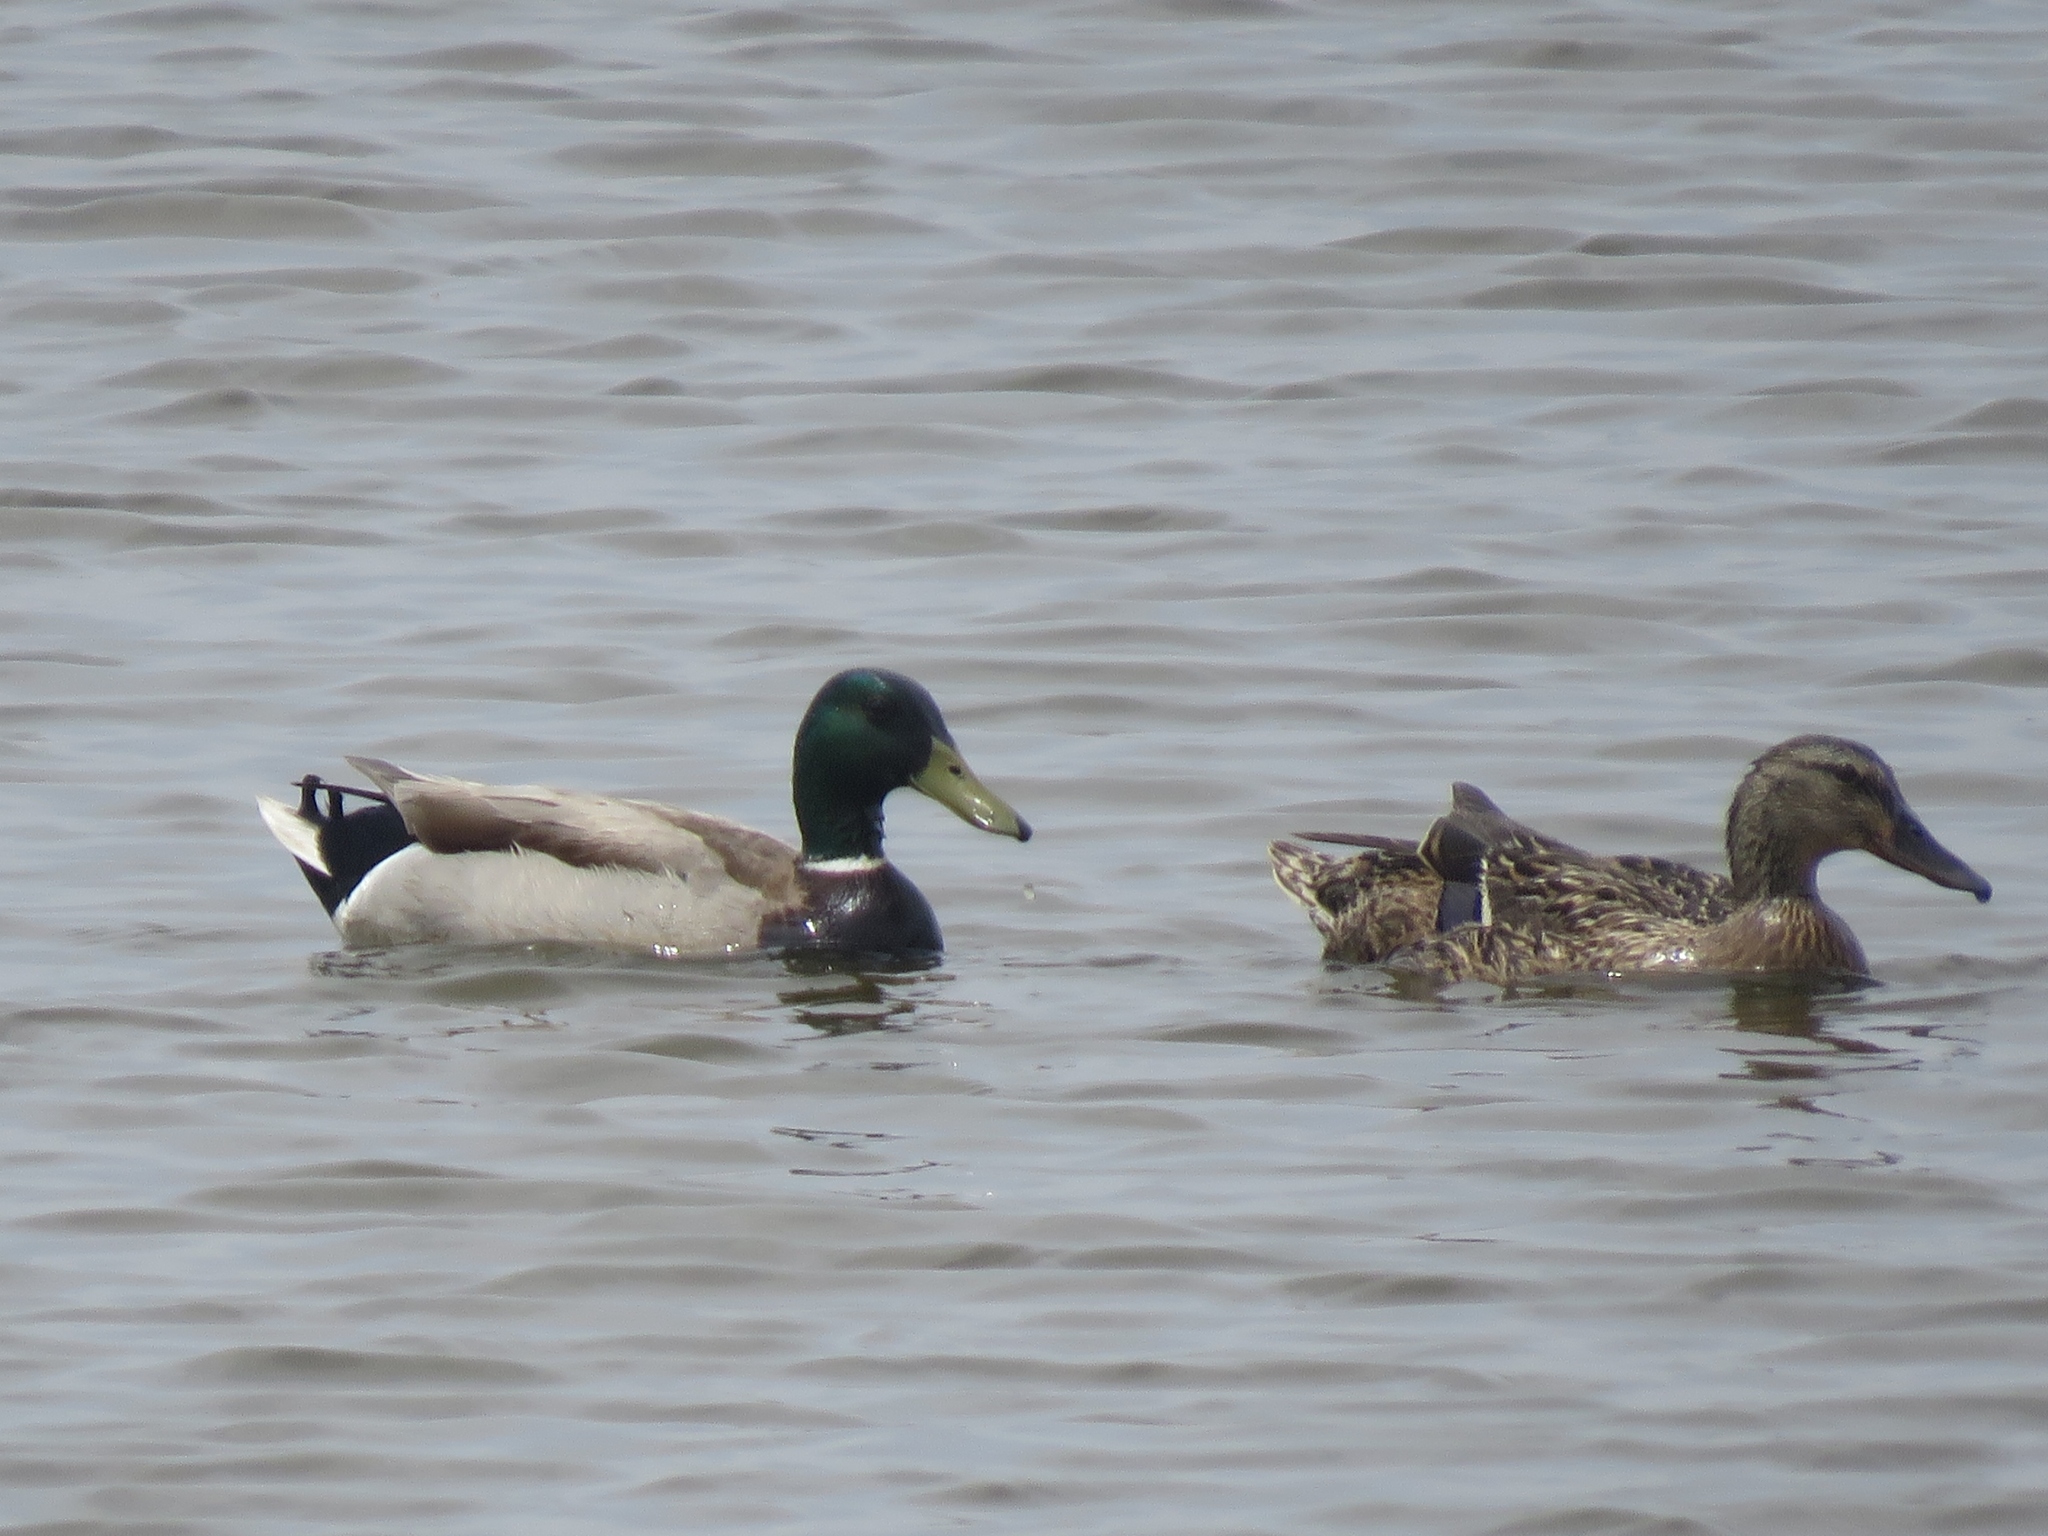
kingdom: Animalia
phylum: Chordata
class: Aves
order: Anseriformes
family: Anatidae
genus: Anas
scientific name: Anas platyrhynchos
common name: Mallard
